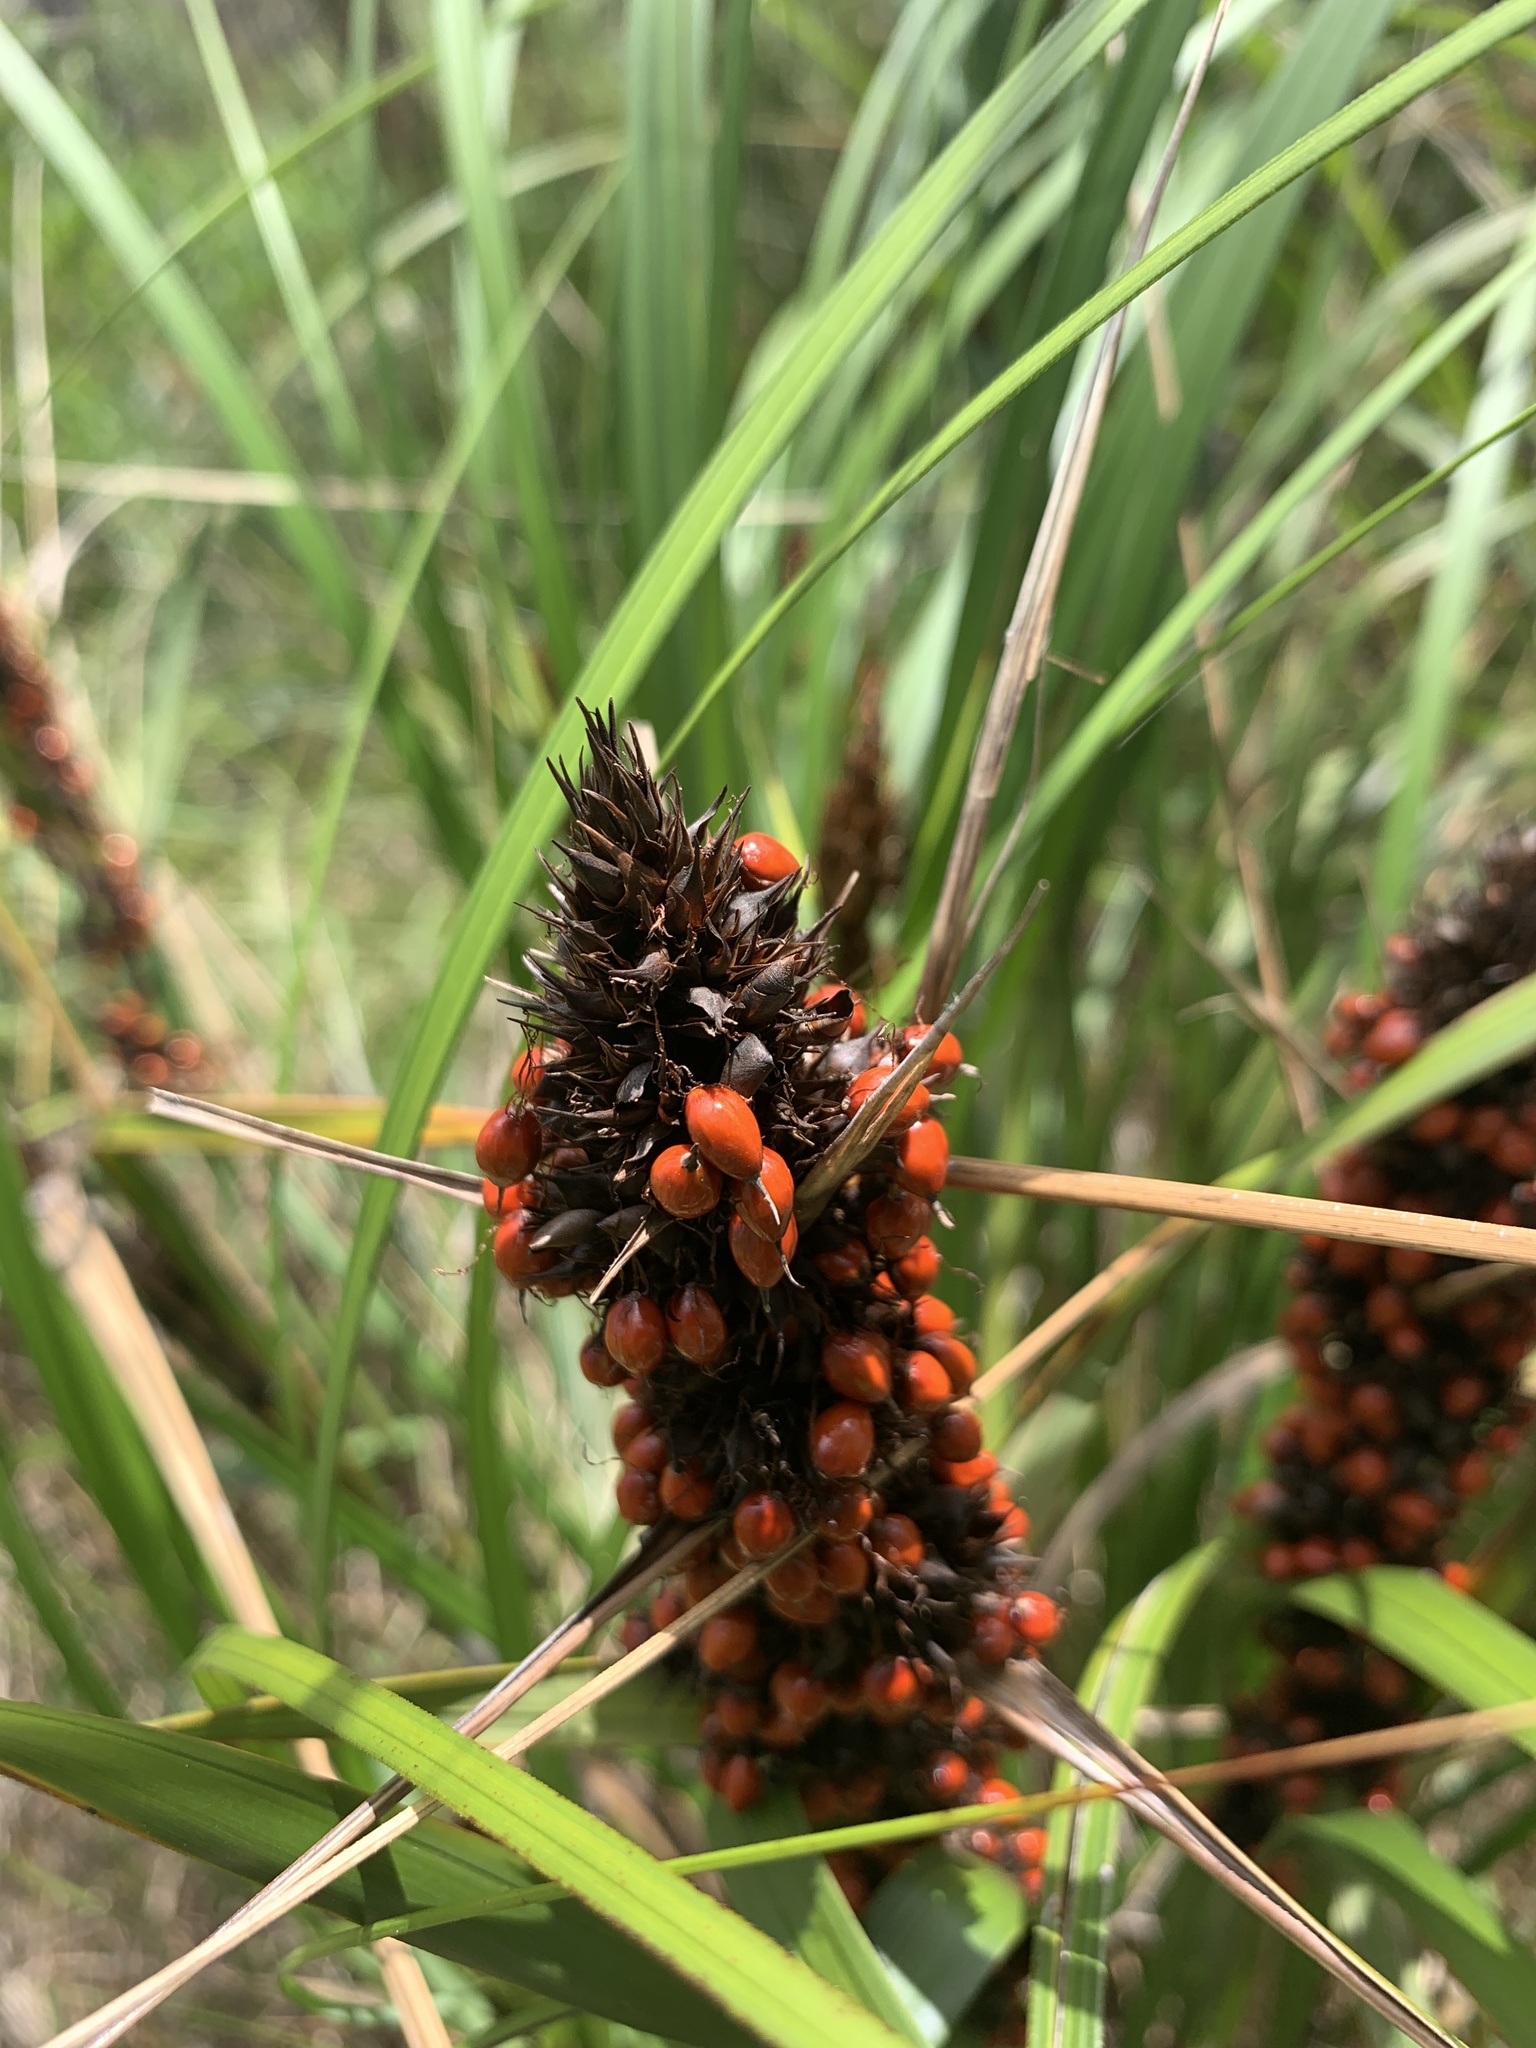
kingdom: Plantae
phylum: Tracheophyta
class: Liliopsida
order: Poales
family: Cyperaceae
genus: Gahnia
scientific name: Gahnia aspera
